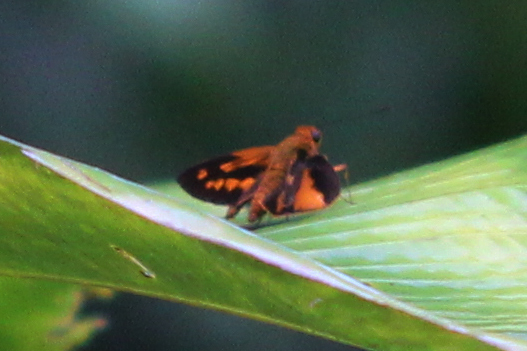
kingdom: Animalia
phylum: Arthropoda
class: Insecta
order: Lepidoptera
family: Hesperiidae
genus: Molo
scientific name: Molo mango
